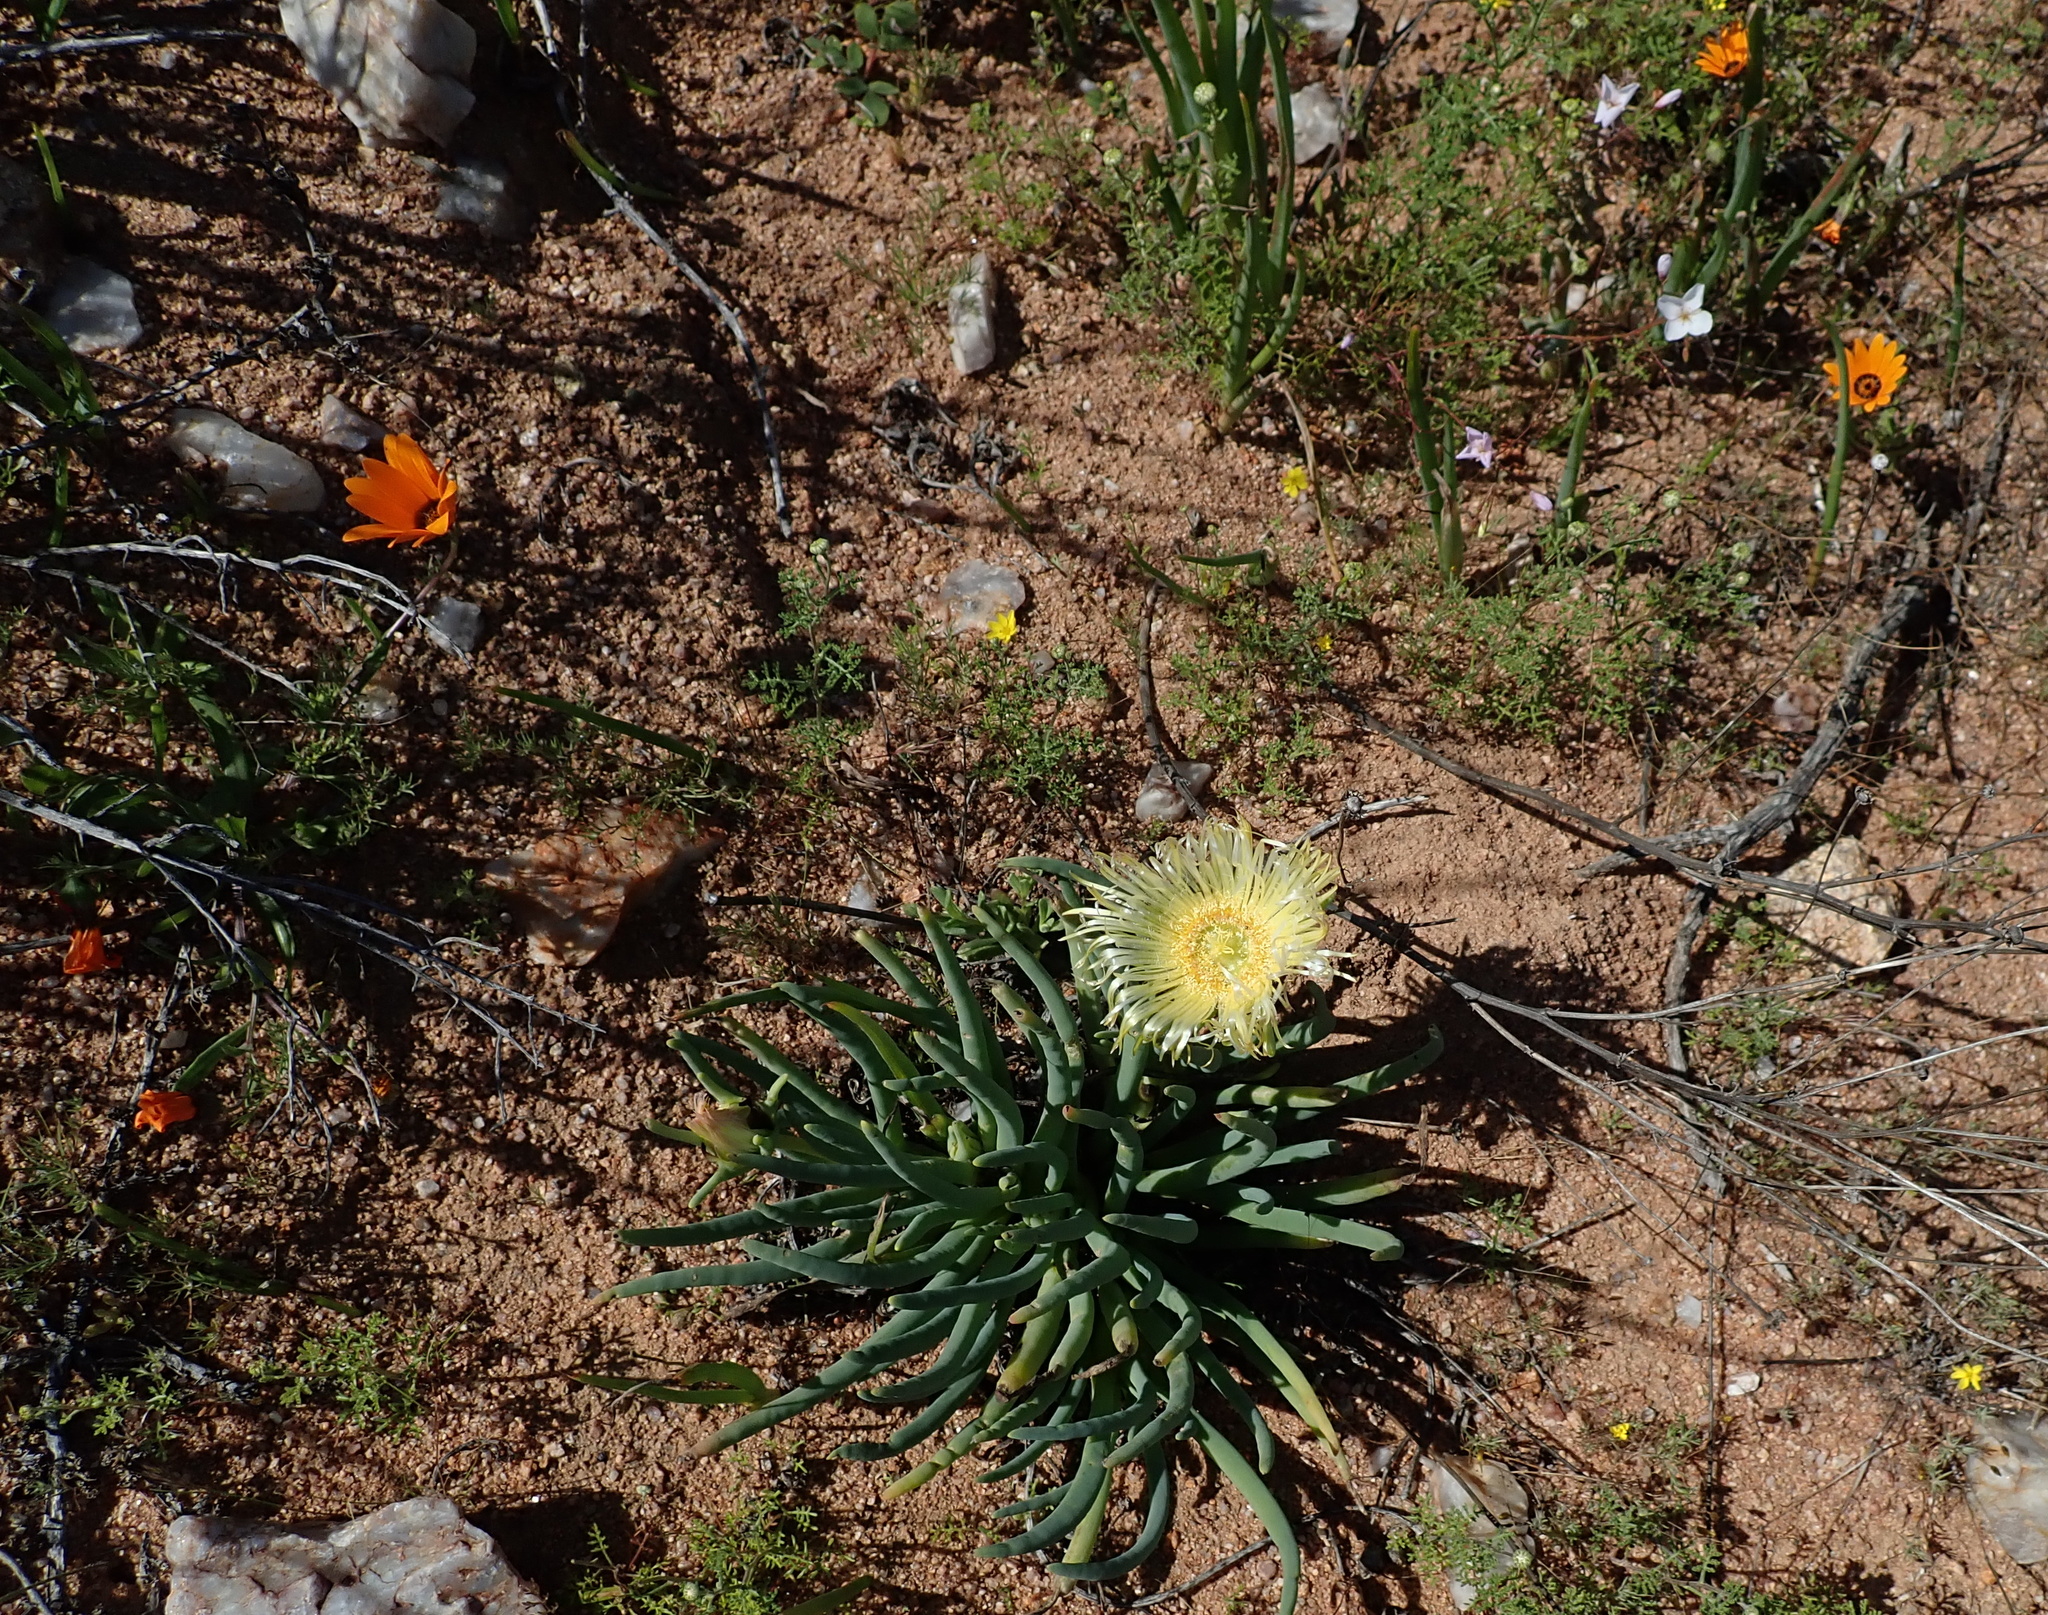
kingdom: Plantae
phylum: Tracheophyta
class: Magnoliopsida
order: Caryophyllales
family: Aizoaceae
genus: Conicosia
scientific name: Conicosia elongata
